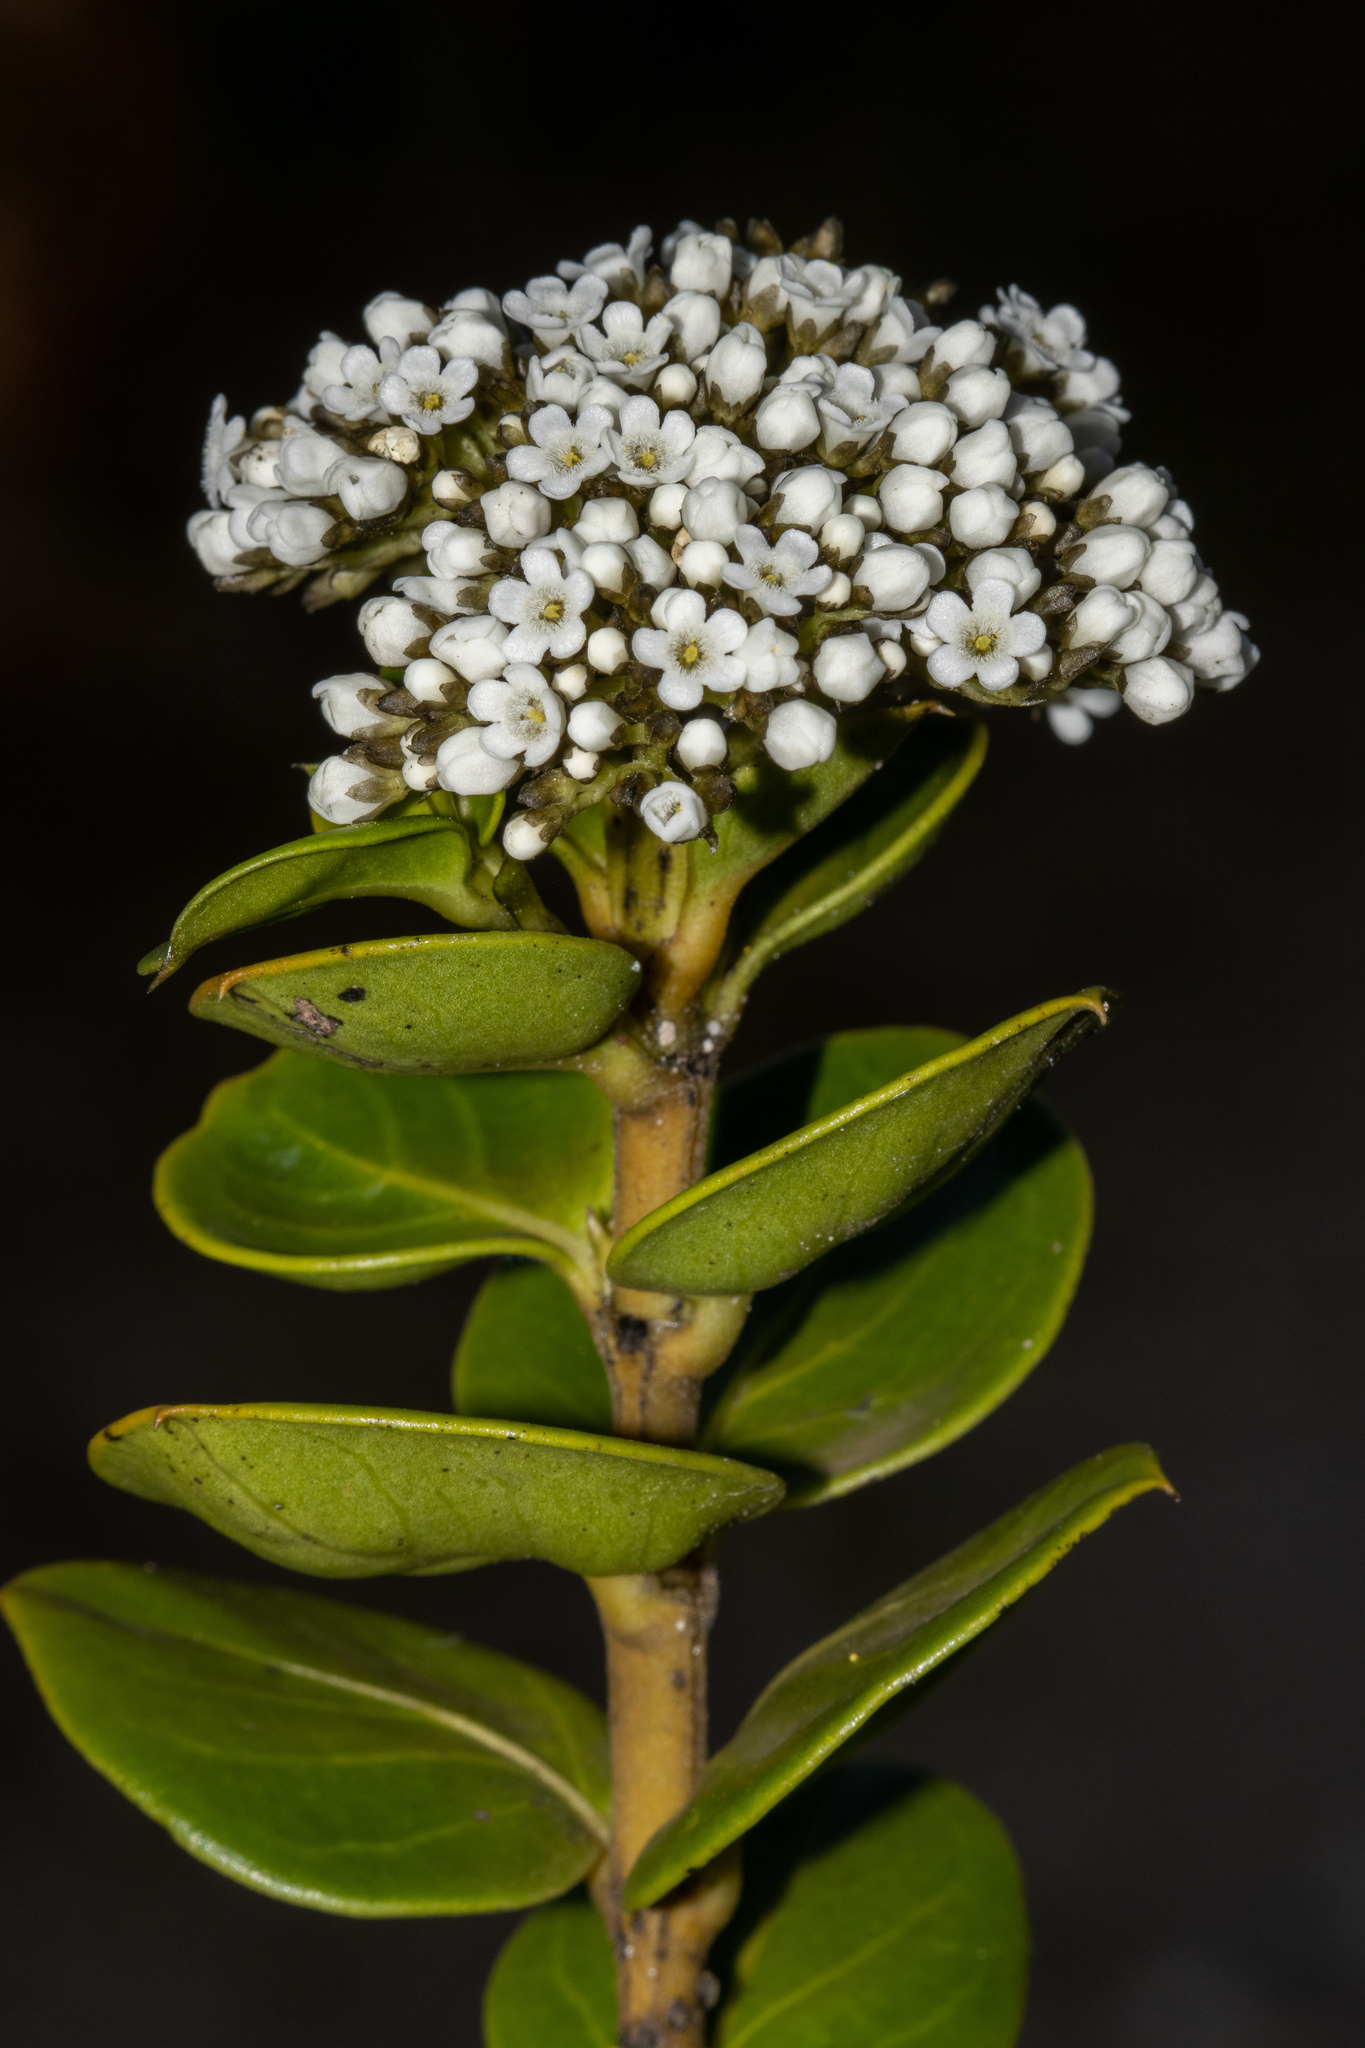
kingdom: Plantae
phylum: Tracheophyta
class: Magnoliopsida
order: Gentianales
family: Loganiaceae
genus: Logania
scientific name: Logania ovata
